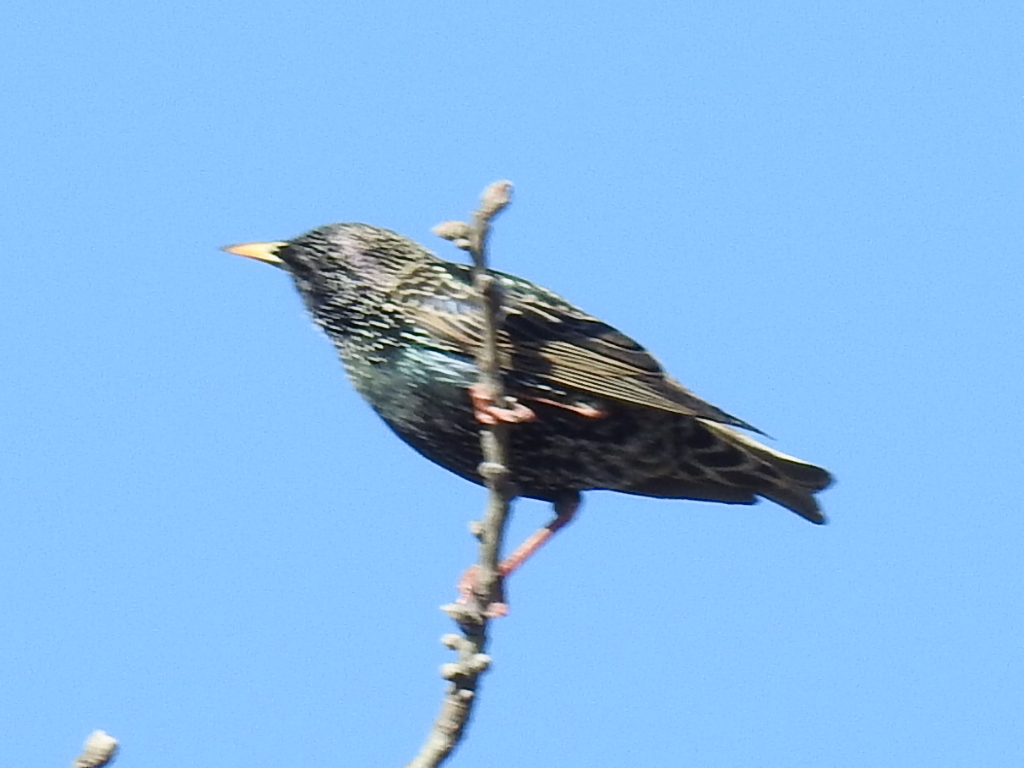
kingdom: Animalia
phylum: Chordata
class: Aves
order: Passeriformes
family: Sturnidae
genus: Sturnus
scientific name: Sturnus vulgaris
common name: Common starling
